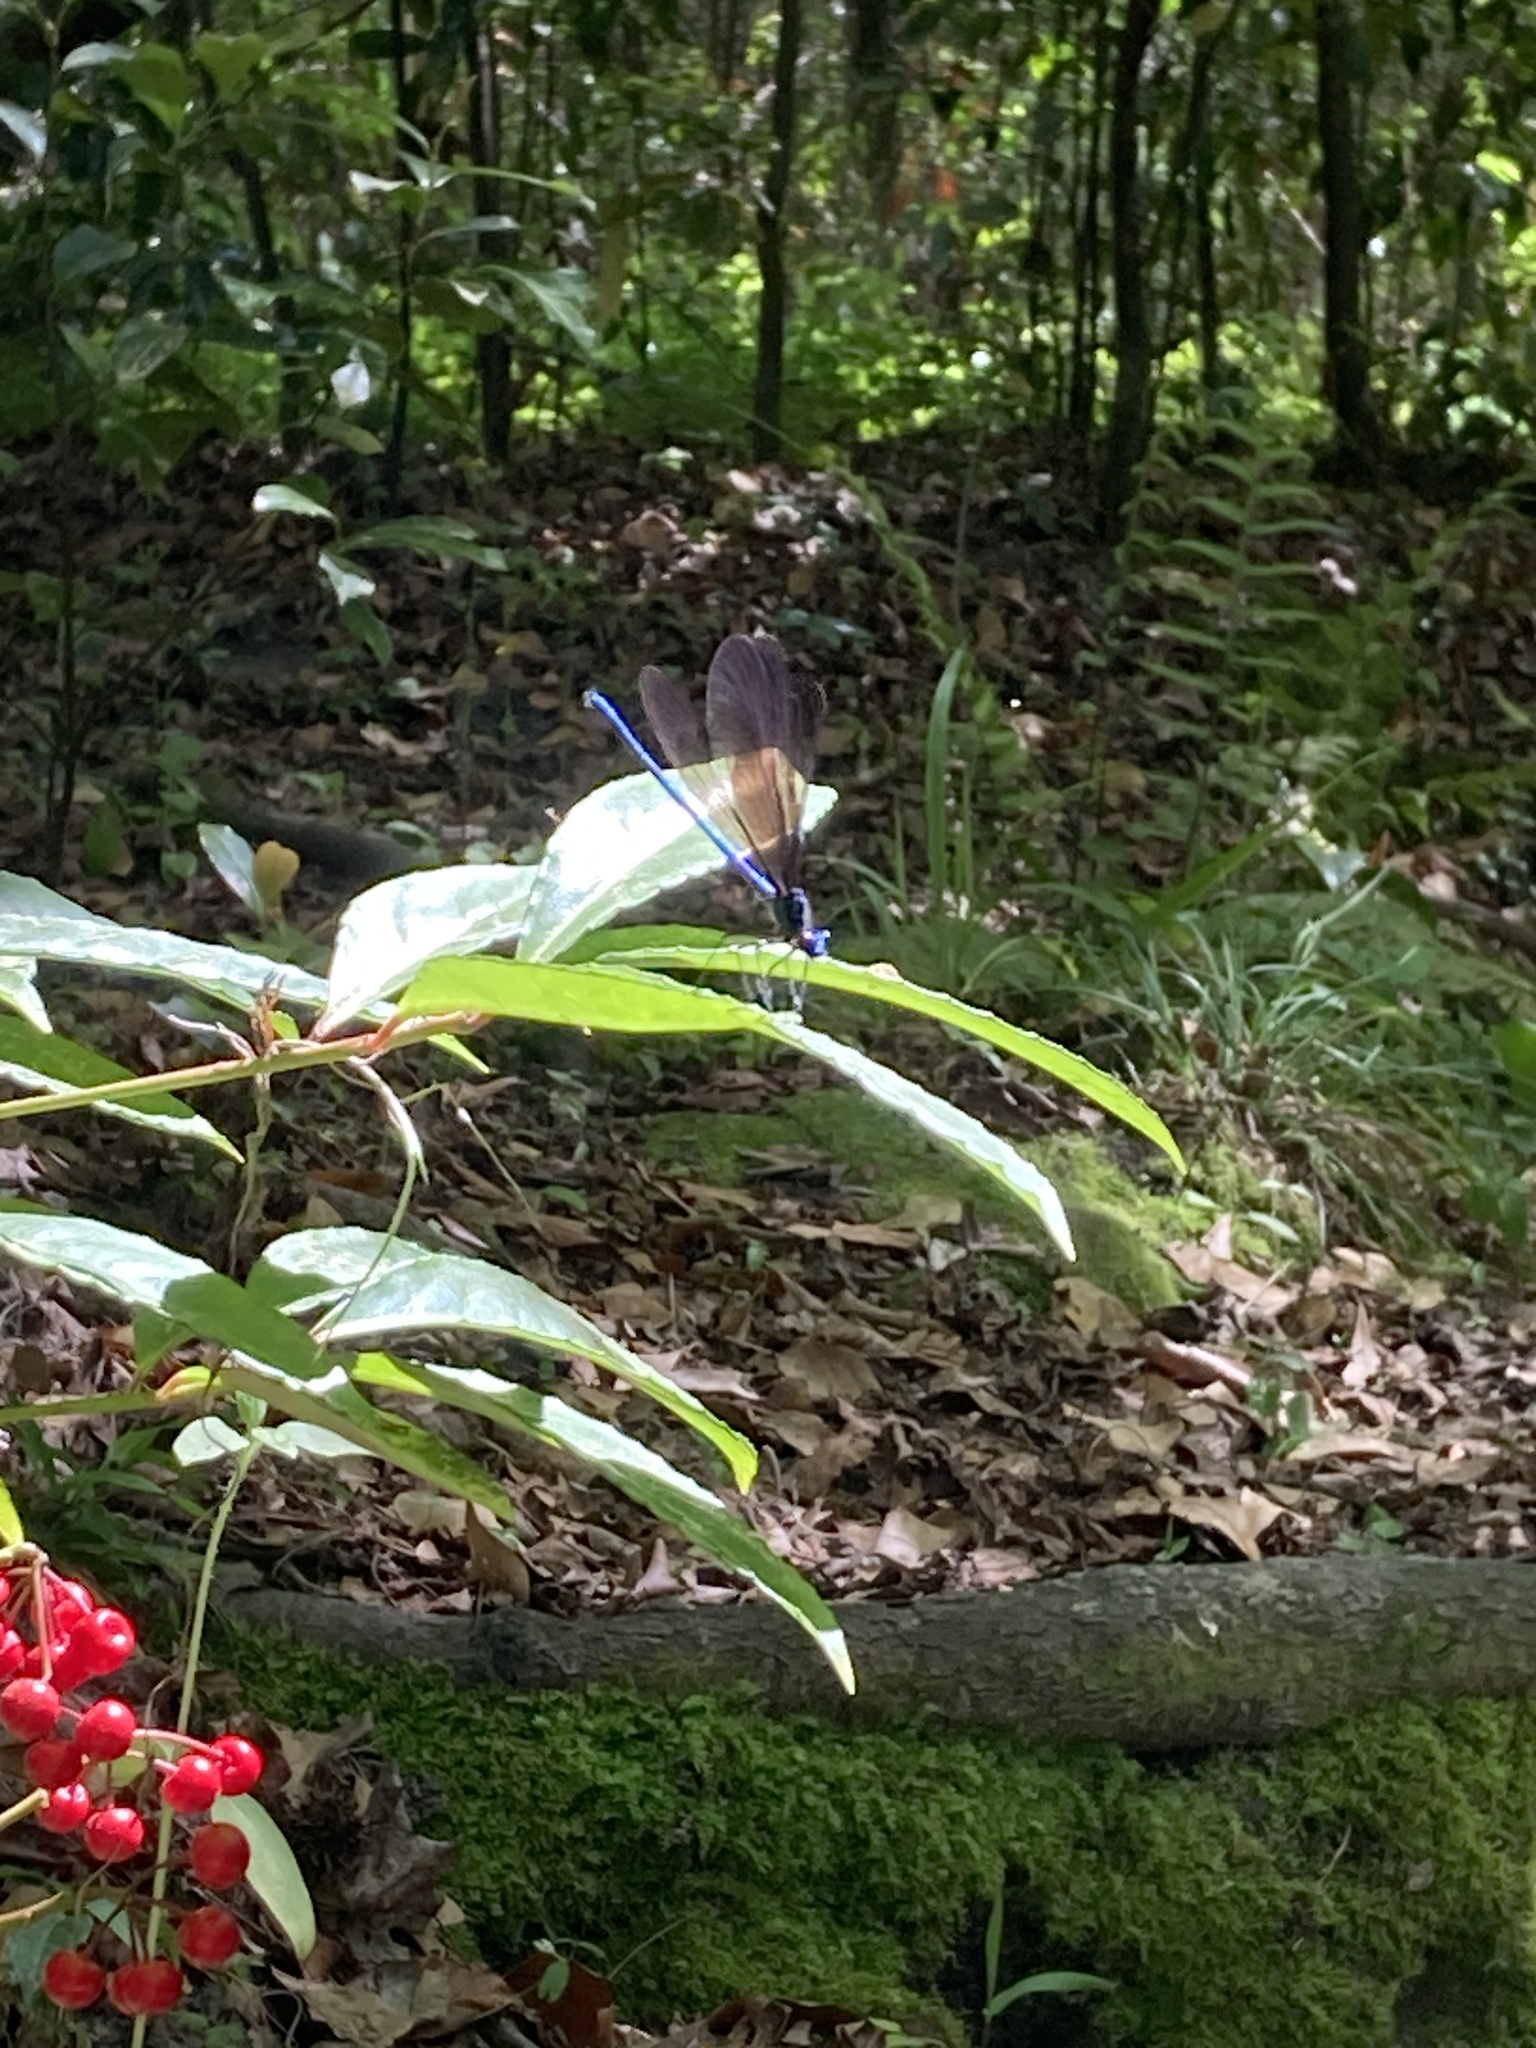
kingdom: Animalia
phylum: Arthropoda
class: Insecta
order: Odonata
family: Calopterygidae
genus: Calopteryx
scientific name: Calopteryx maculata
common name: Ebony jewelwing
